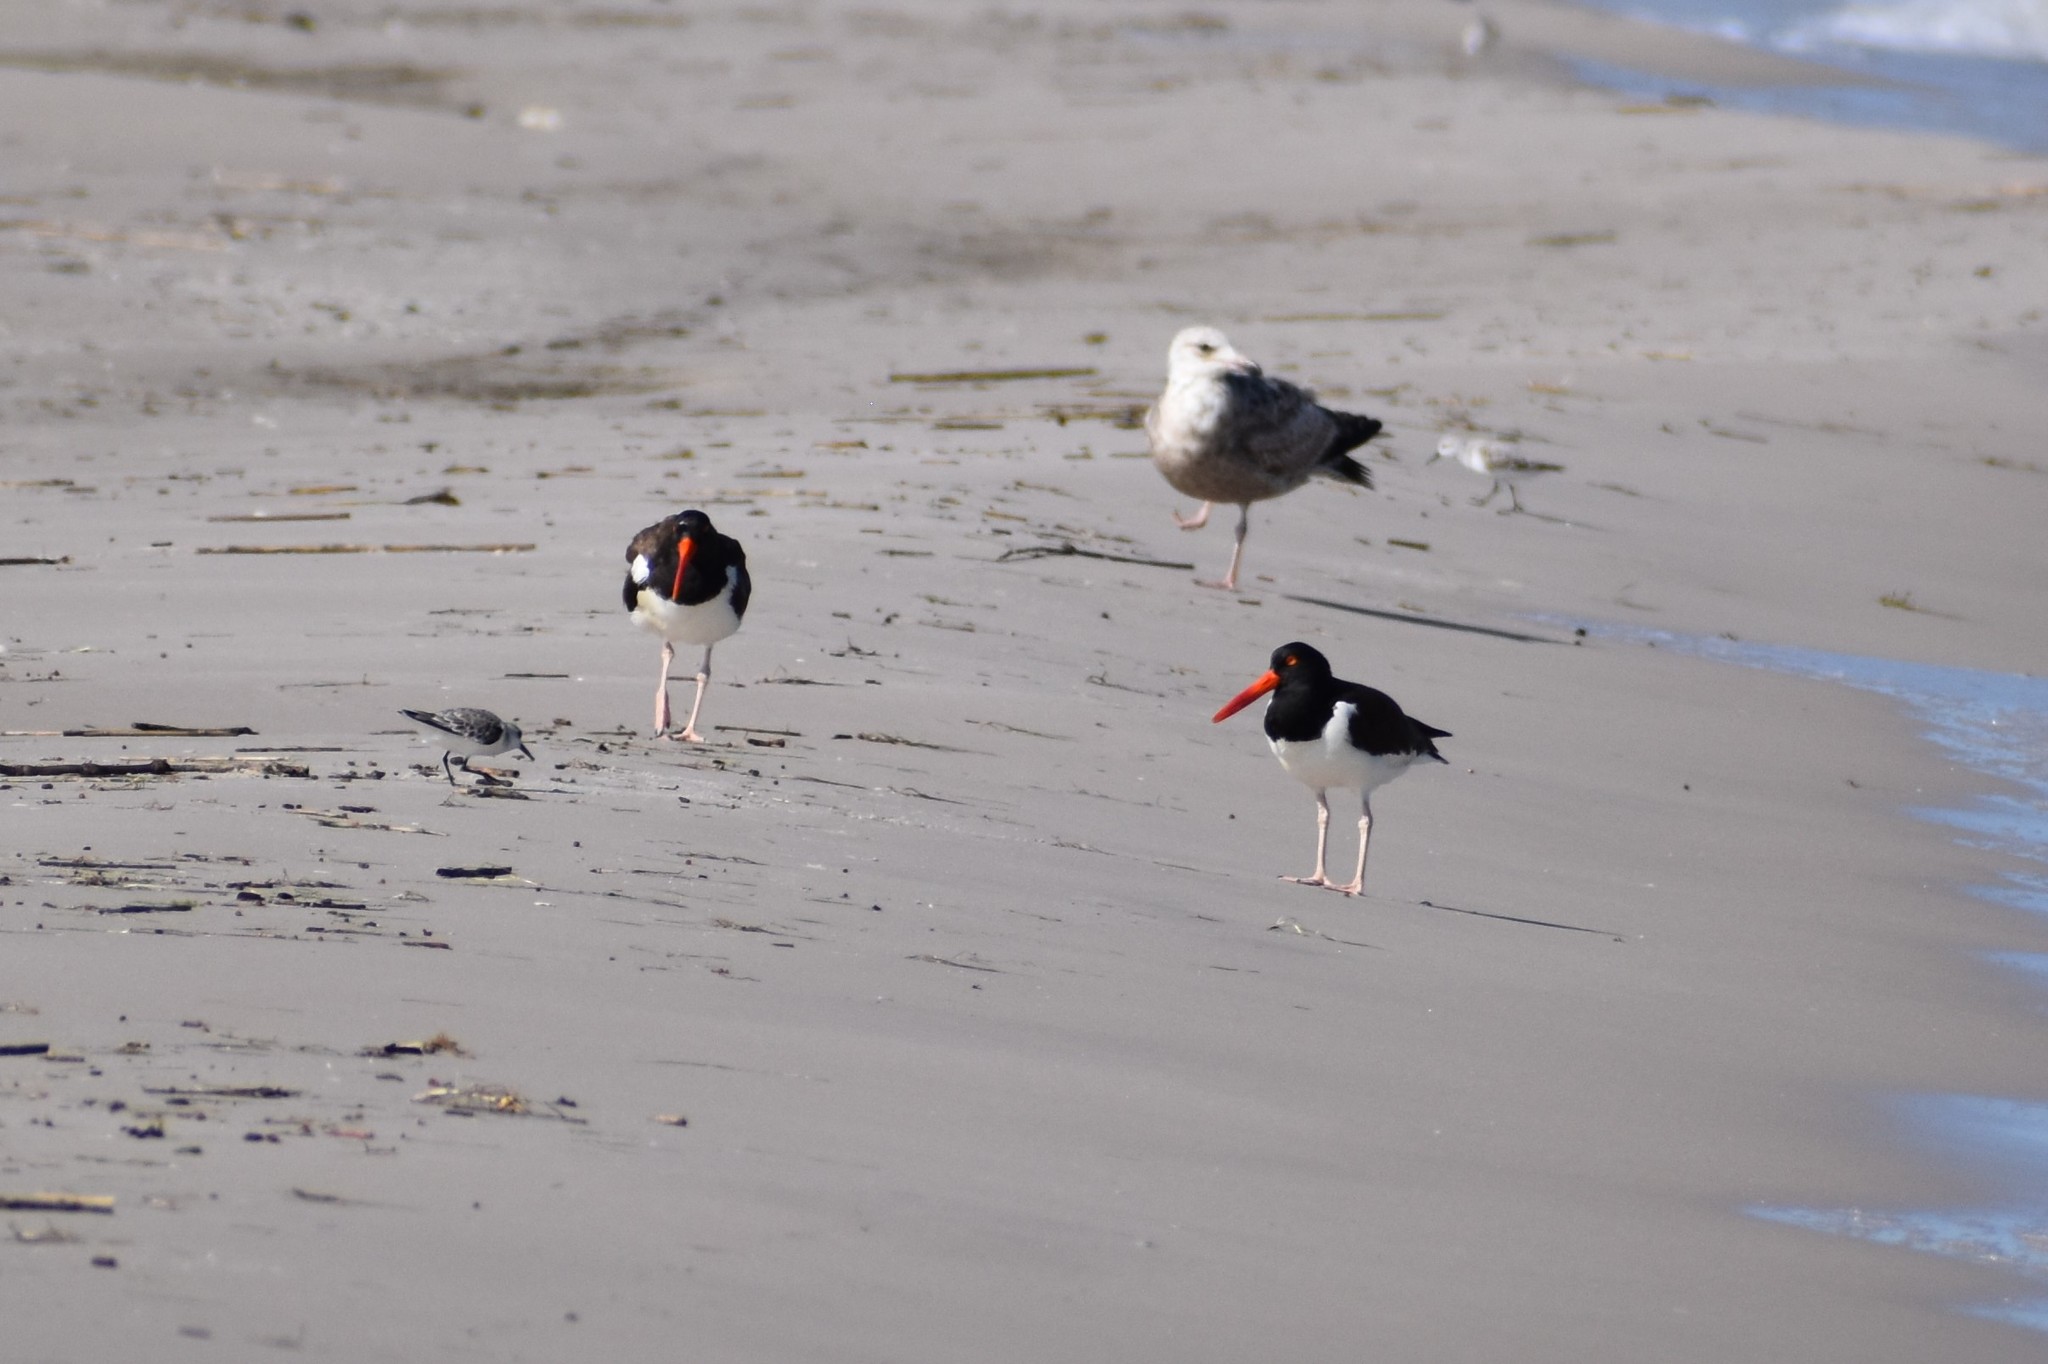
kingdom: Animalia
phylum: Chordata
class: Aves
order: Charadriiformes
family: Haematopodidae
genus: Haematopus
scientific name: Haematopus palliatus
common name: American oystercatcher
